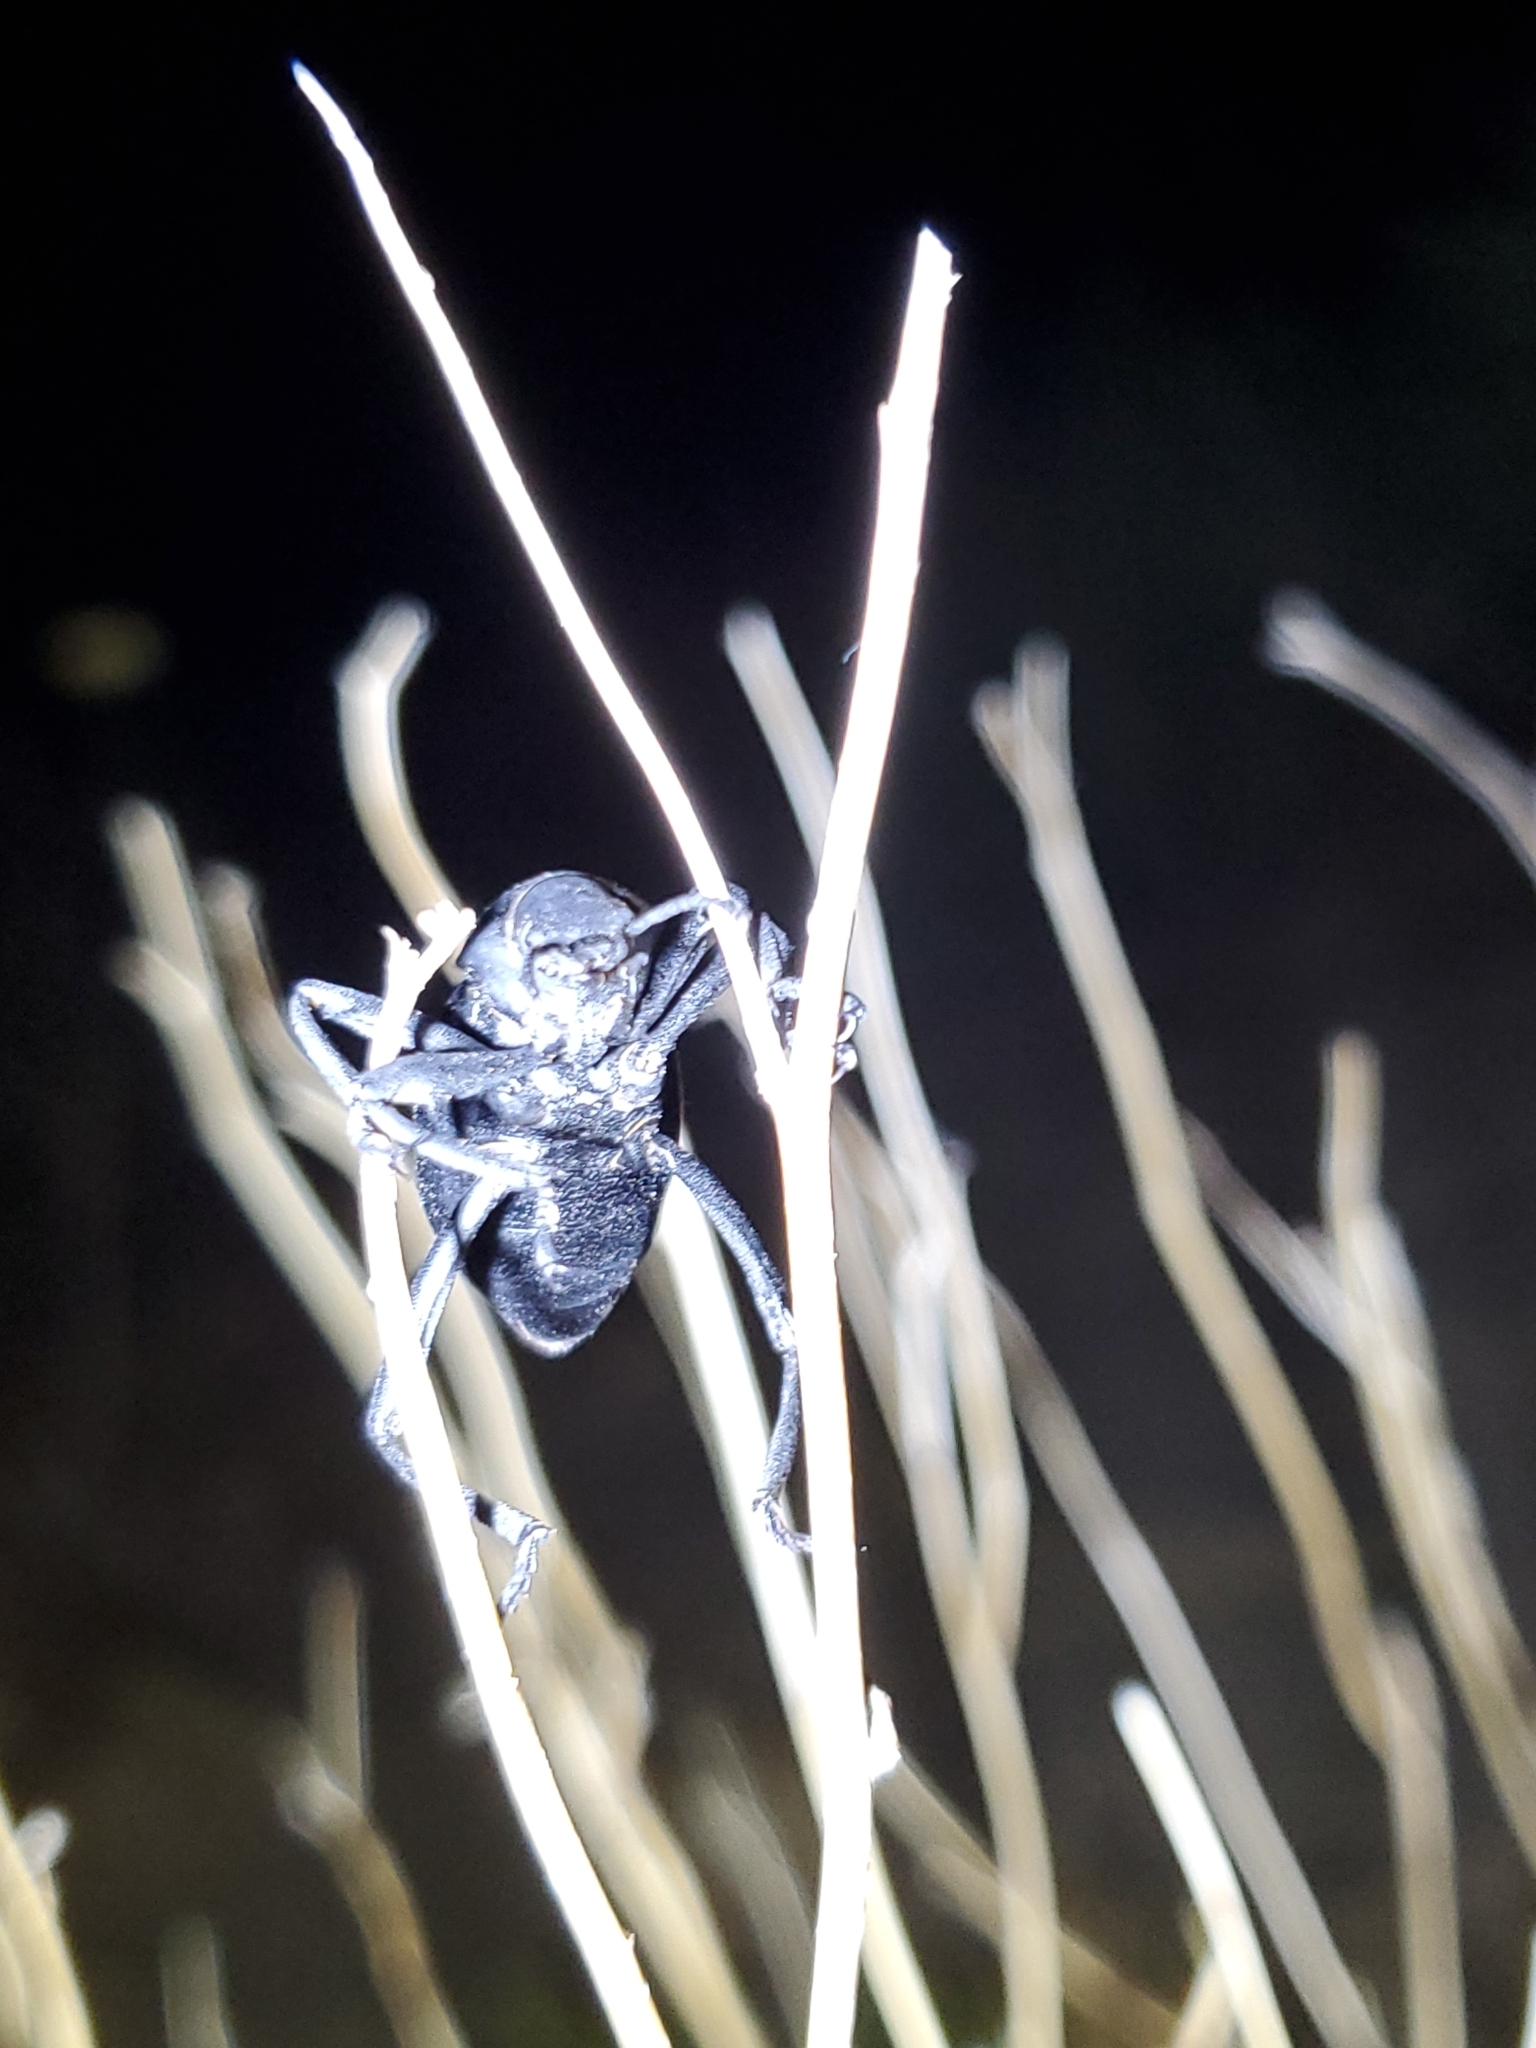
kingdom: Animalia
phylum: Arthropoda
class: Insecta
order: Coleoptera
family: Tenebrionidae
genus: Eleodes
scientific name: Eleodes armata
